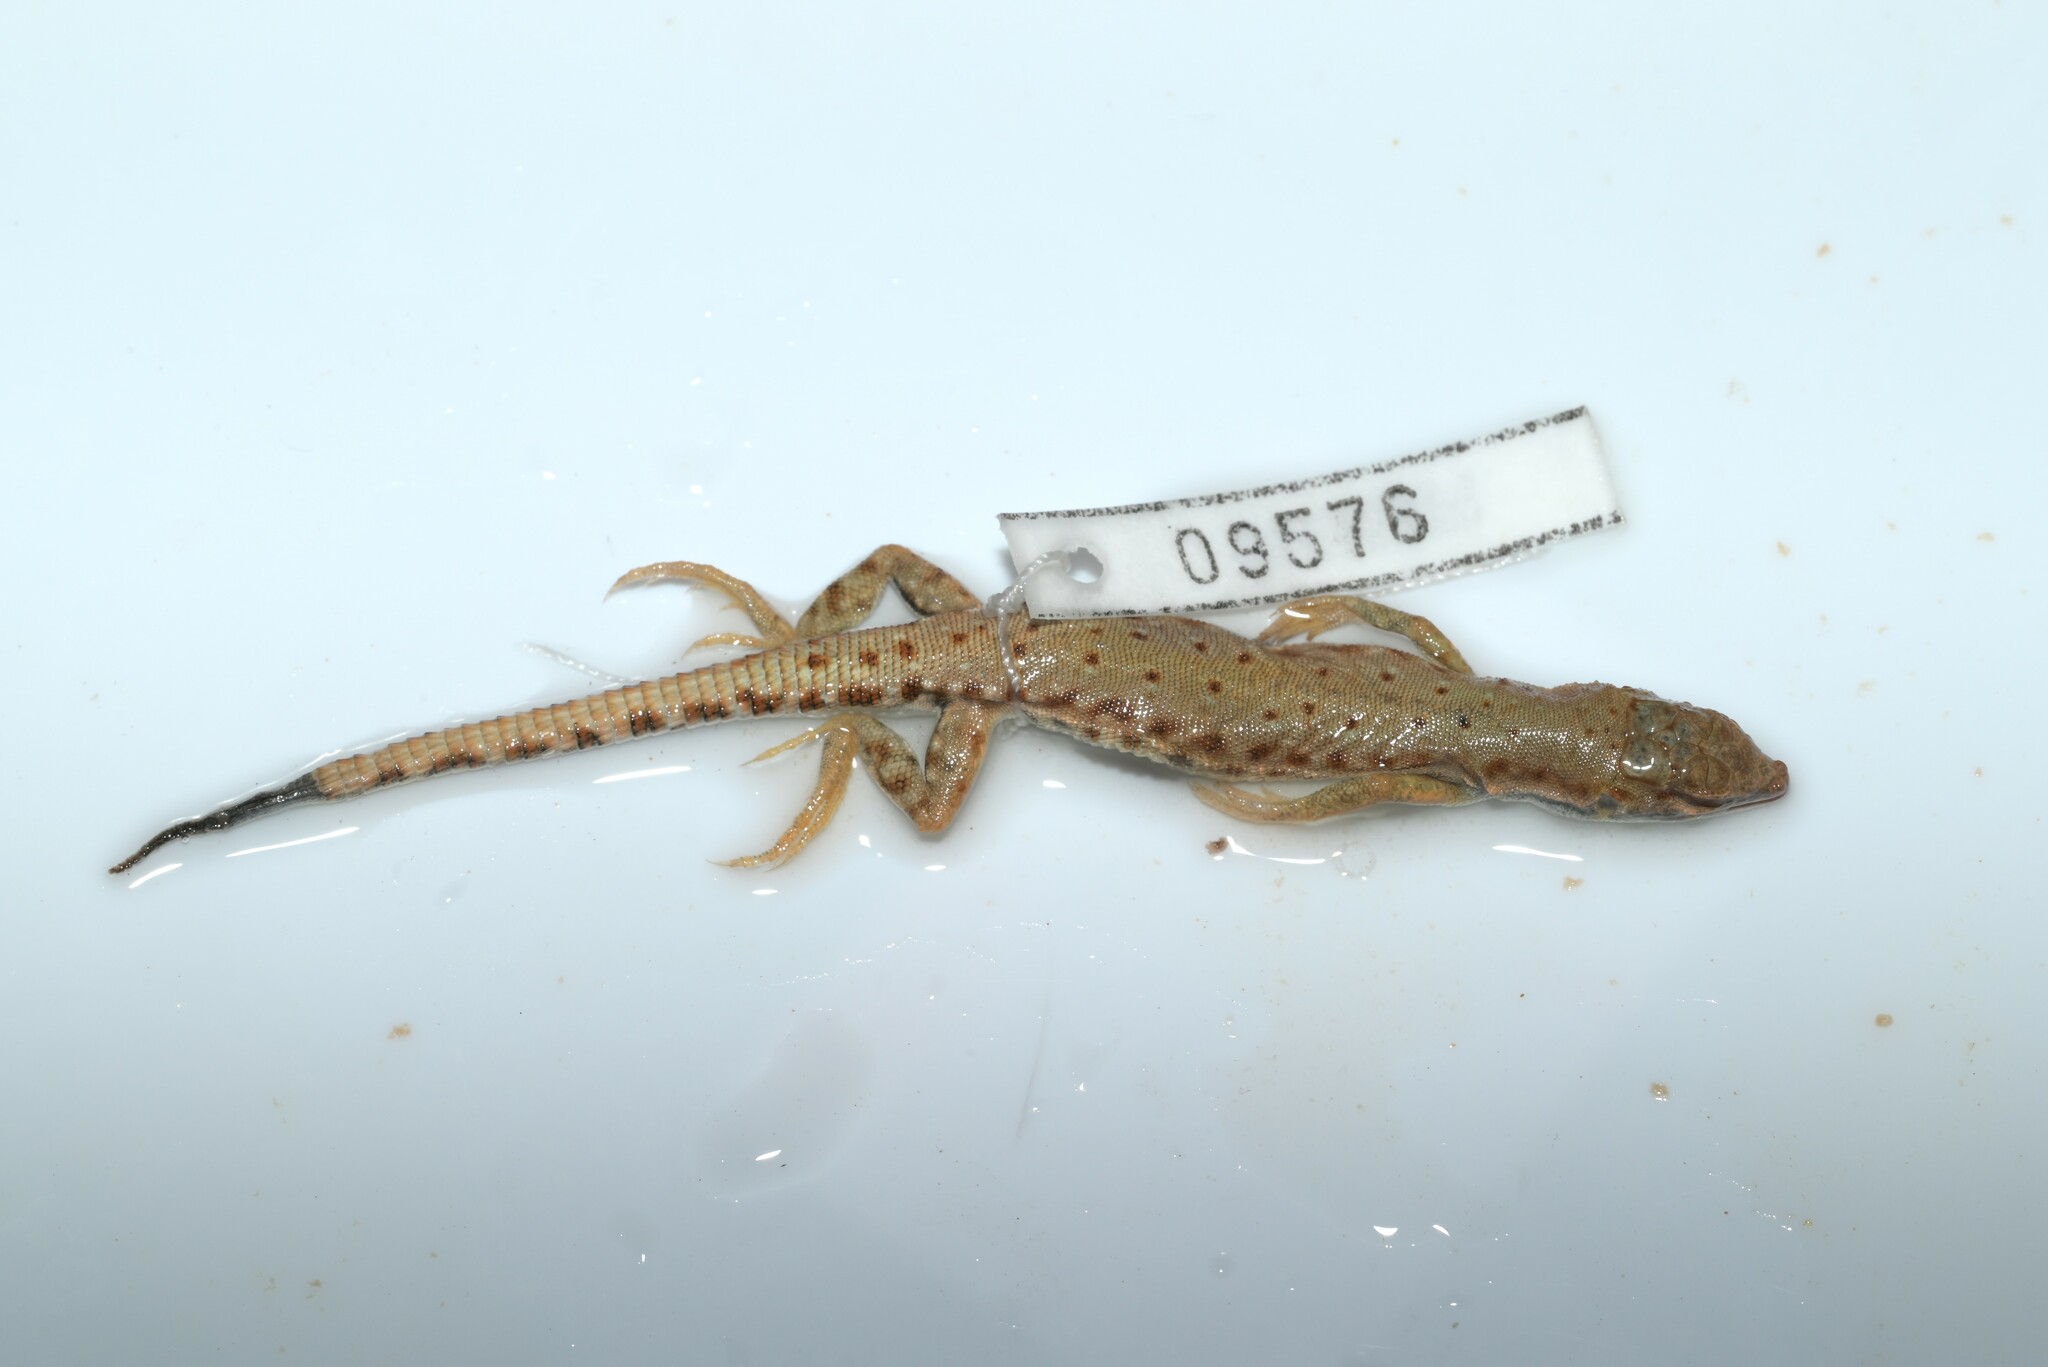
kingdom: Animalia
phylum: Chordata
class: Squamata
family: Lacertidae
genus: Mesalina
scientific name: Mesalina brevirostris
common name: Blanford's short-nosed desert lizard
